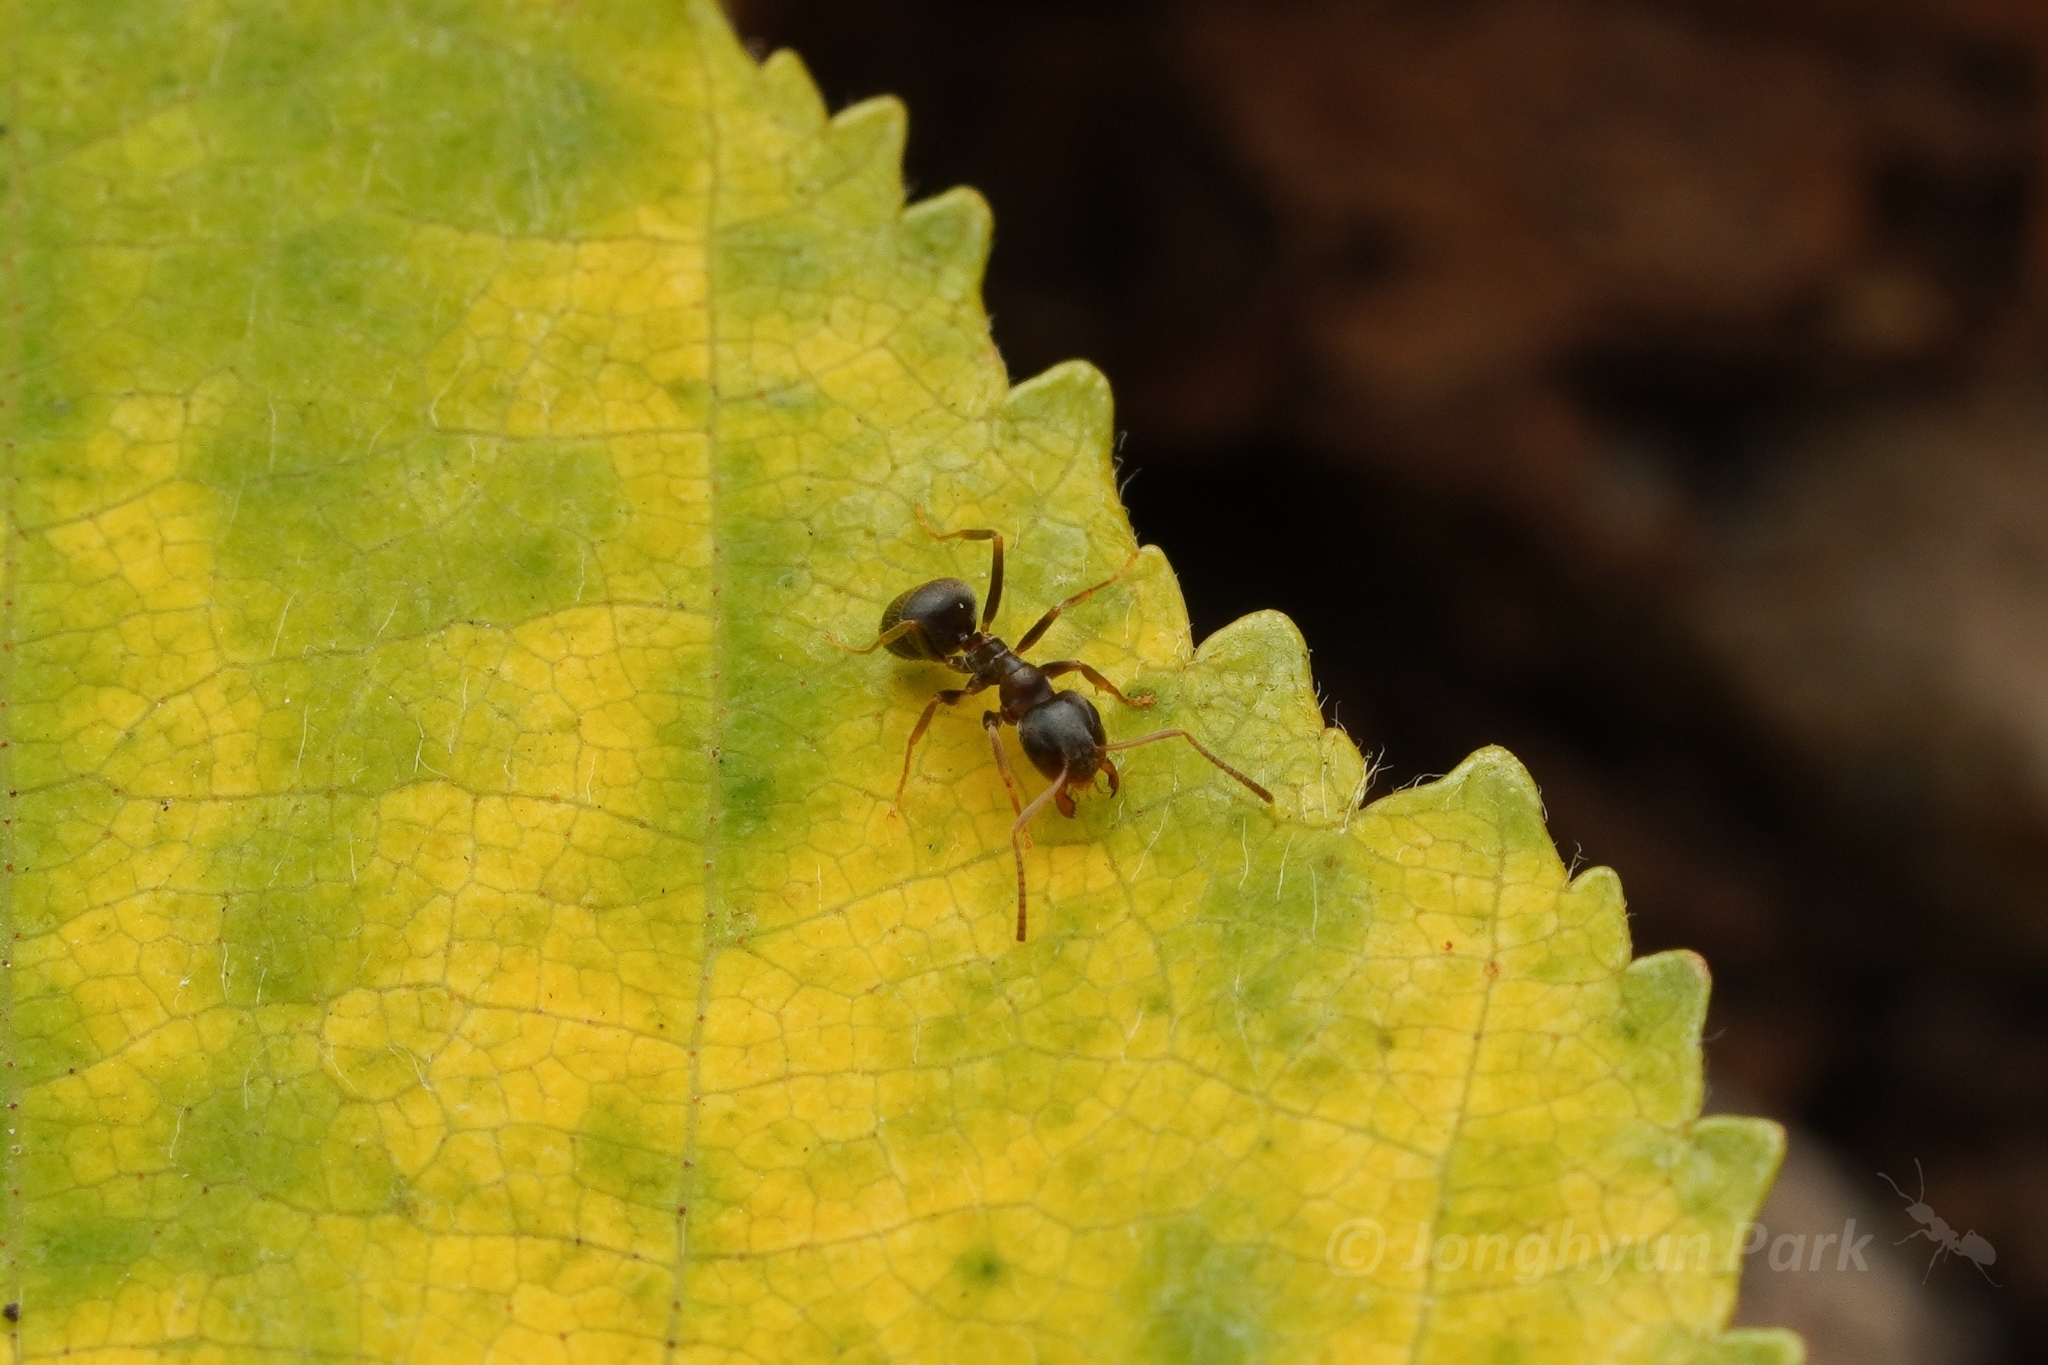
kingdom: Animalia
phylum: Arthropoda
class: Insecta
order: Hymenoptera
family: Formicidae
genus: Lasius
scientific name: Lasius americanus
